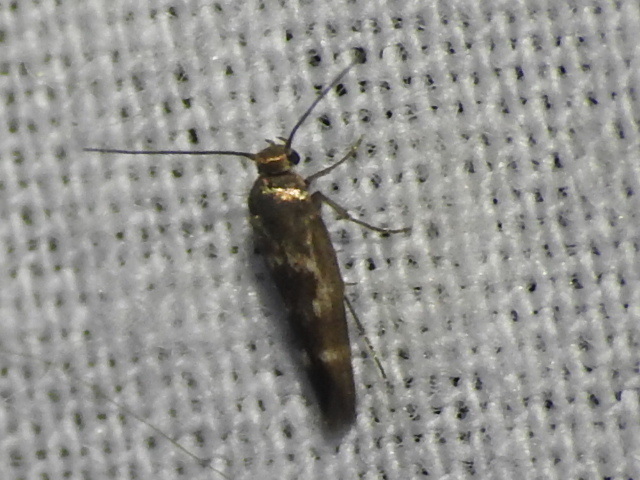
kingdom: Animalia
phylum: Arthropoda
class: Insecta
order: Lepidoptera
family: Scythrididae
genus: Scythris
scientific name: Scythris trivinctella
